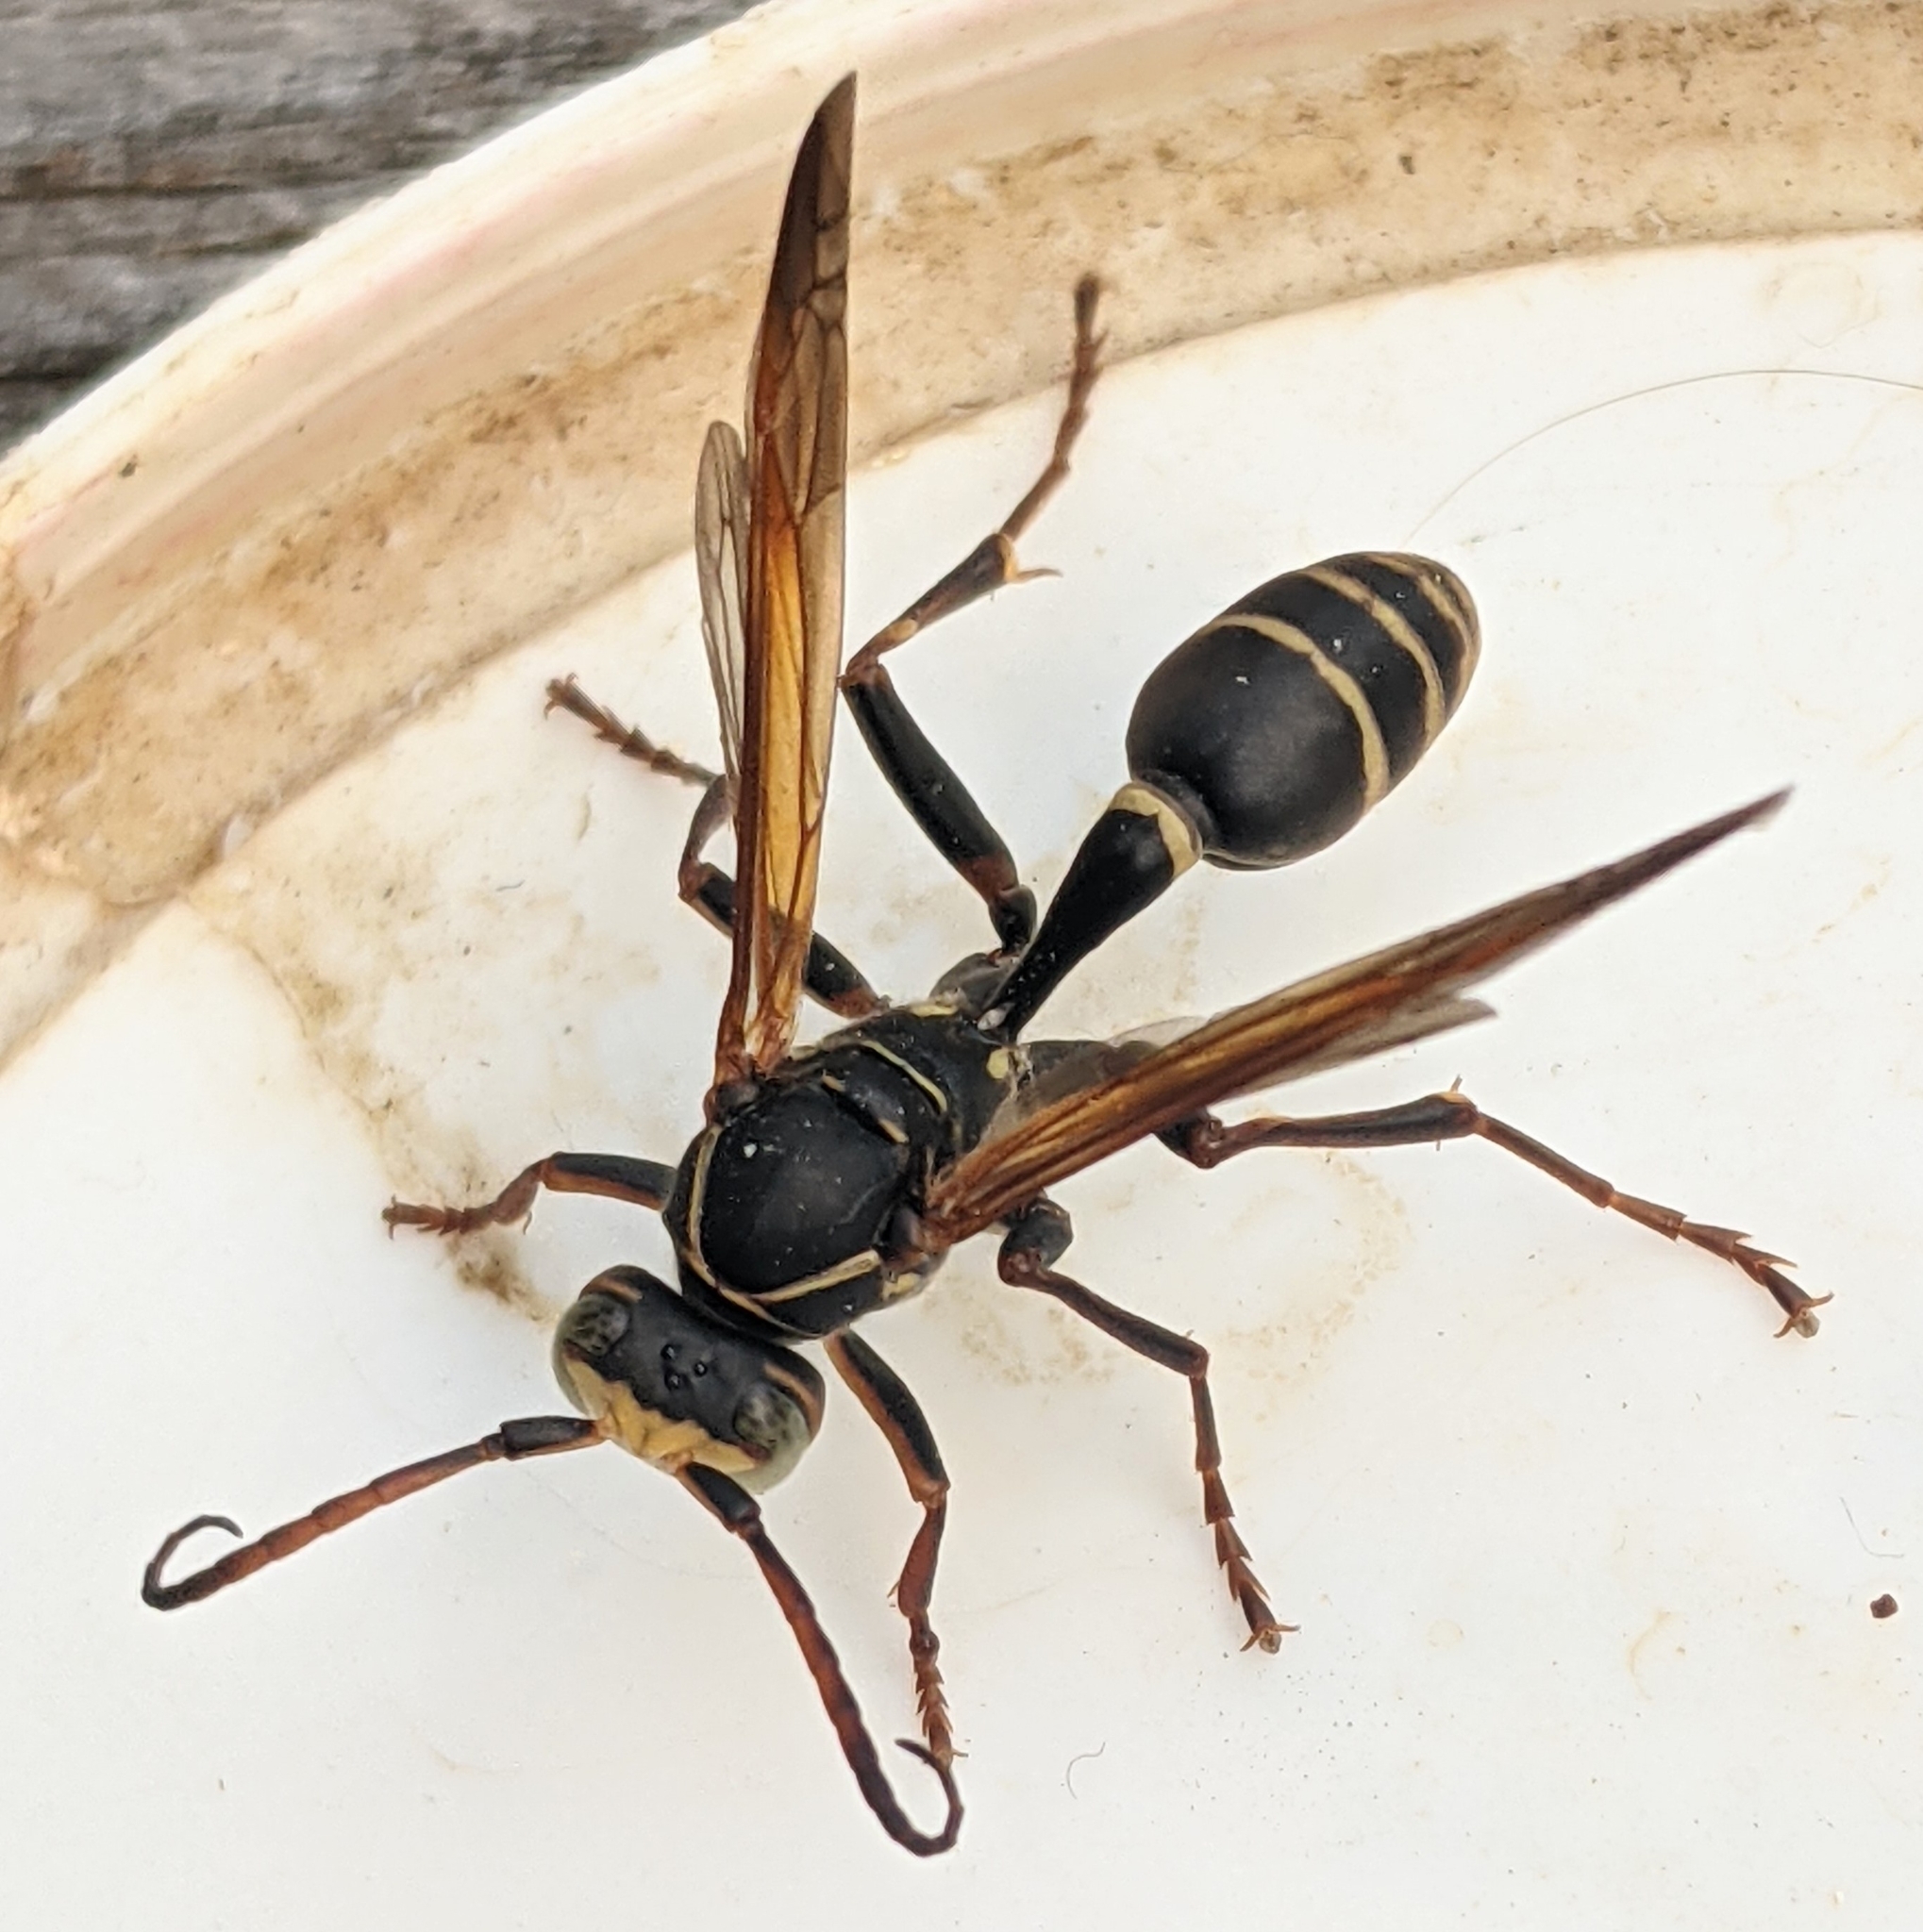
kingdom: Animalia
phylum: Arthropoda
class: Insecta
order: Hymenoptera
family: Vespidae
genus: Mischocyttarus
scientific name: Mischocyttarus flavitarsis
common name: Wasp
